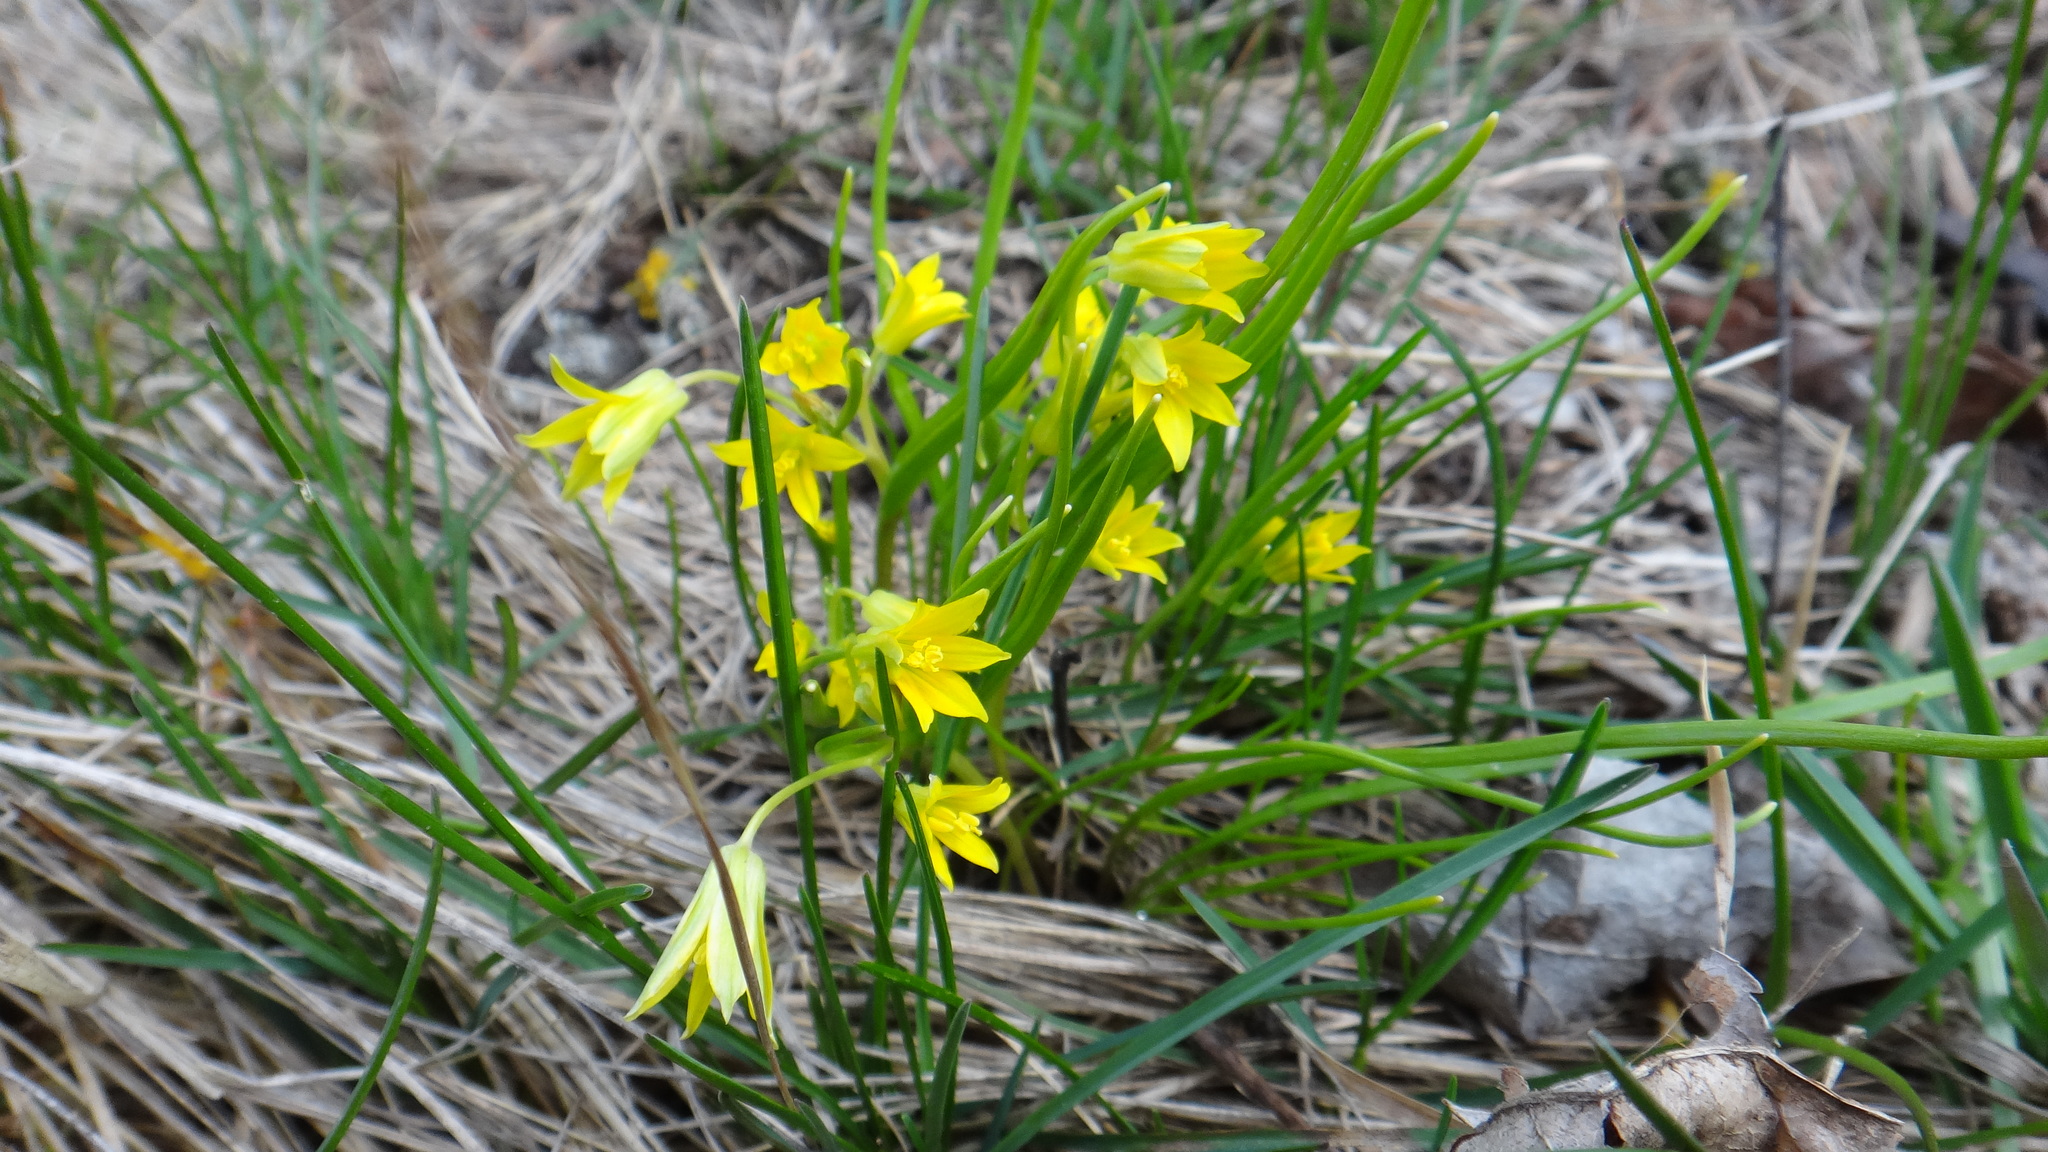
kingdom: Plantae
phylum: Tracheophyta
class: Liliopsida
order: Liliales
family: Liliaceae
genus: Gagea
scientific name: Gagea minima
